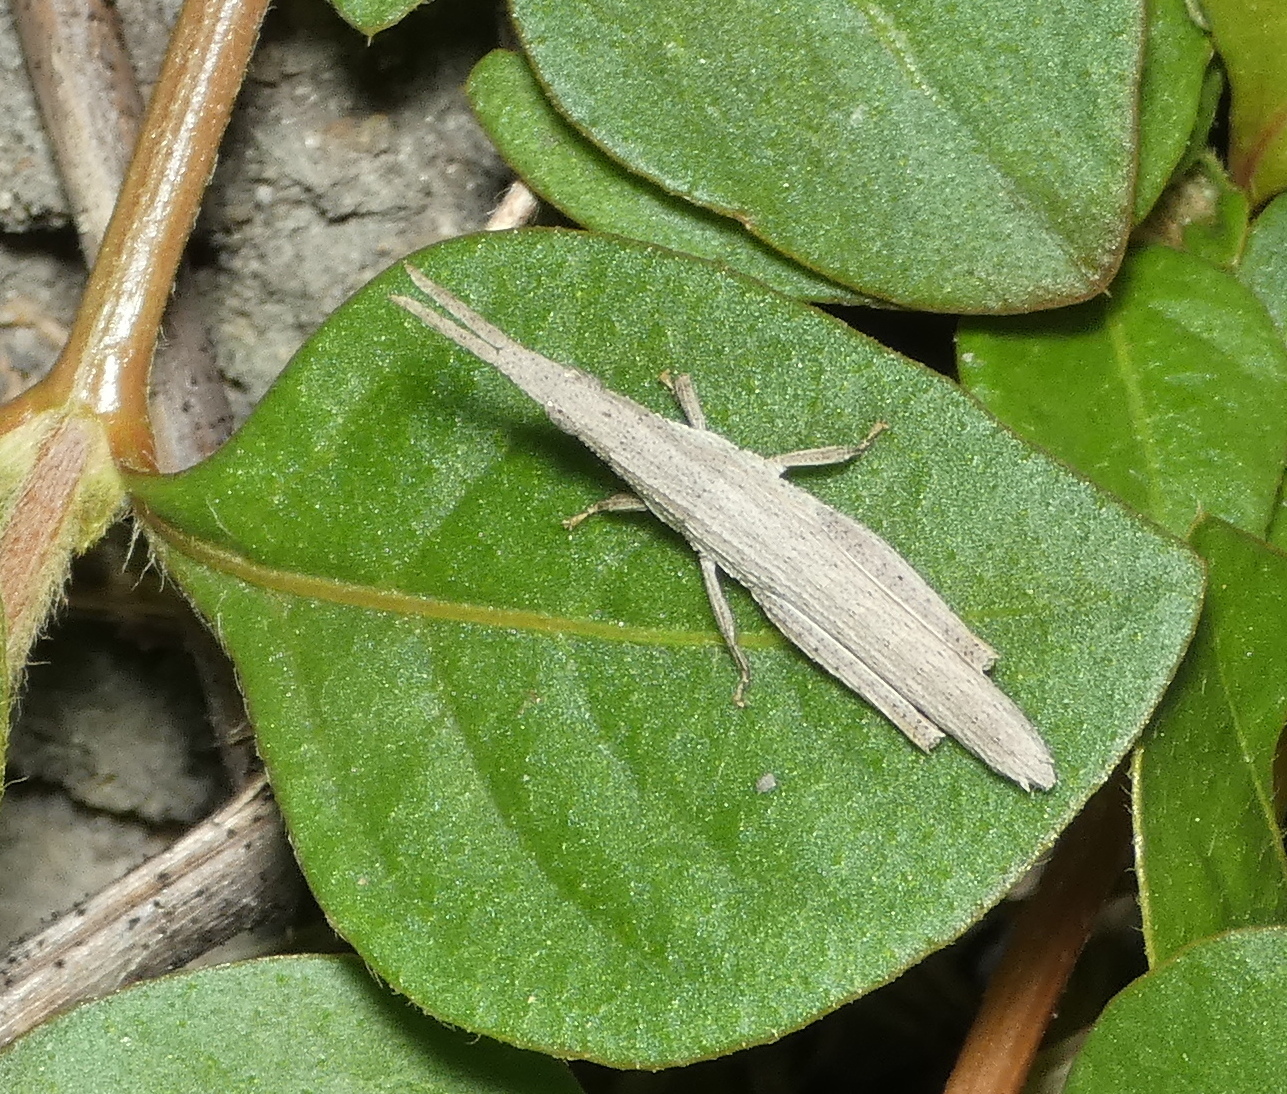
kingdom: Animalia
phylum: Arthropoda
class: Insecta
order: Orthoptera
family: Pyrgomorphidae
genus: Algete
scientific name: Algete brunneri
